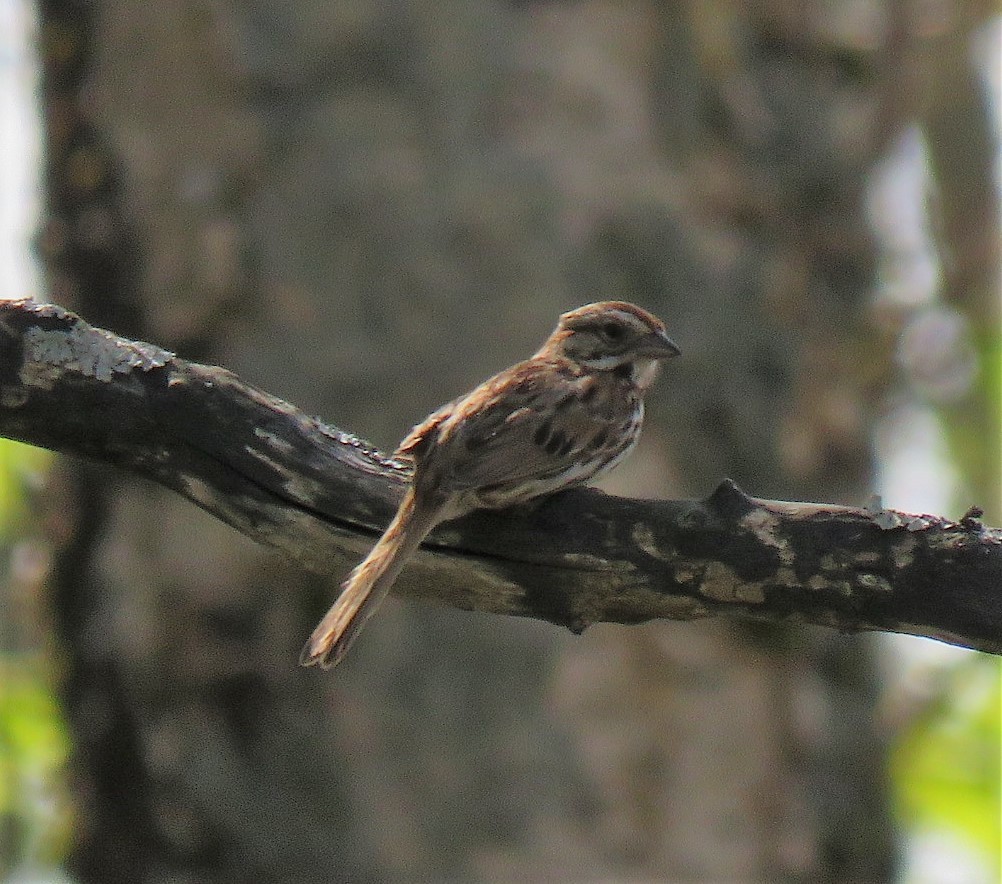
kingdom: Animalia
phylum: Chordata
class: Aves
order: Passeriformes
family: Passerellidae
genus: Melospiza
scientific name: Melospiza melodia
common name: Song sparrow
